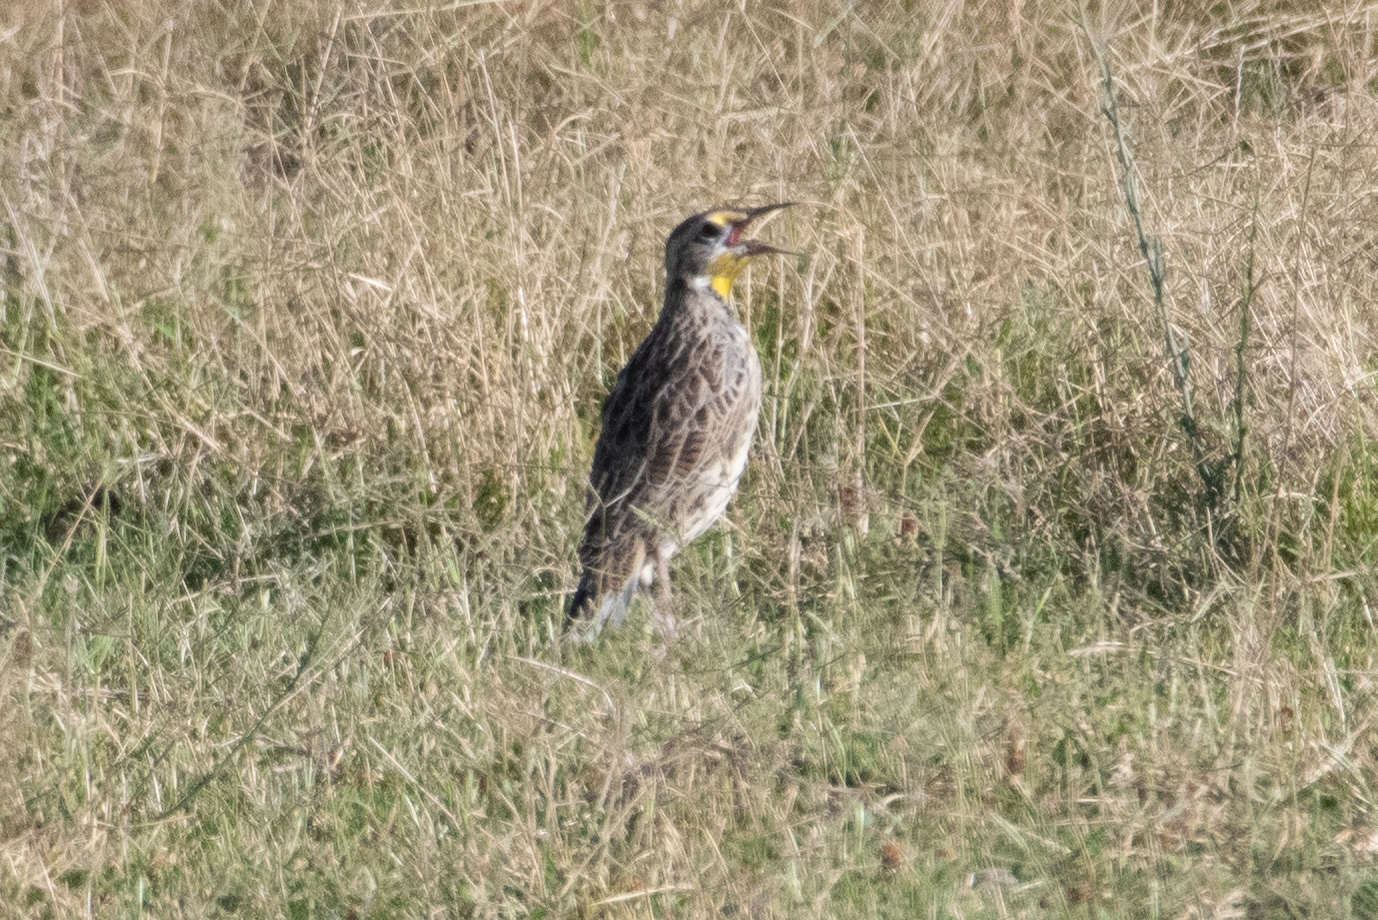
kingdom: Animalia
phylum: Chordata
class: Aves
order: Passeriformes
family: Icteridae
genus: Sturnella
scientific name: Sturnella neglecta
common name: Western meadowlark
